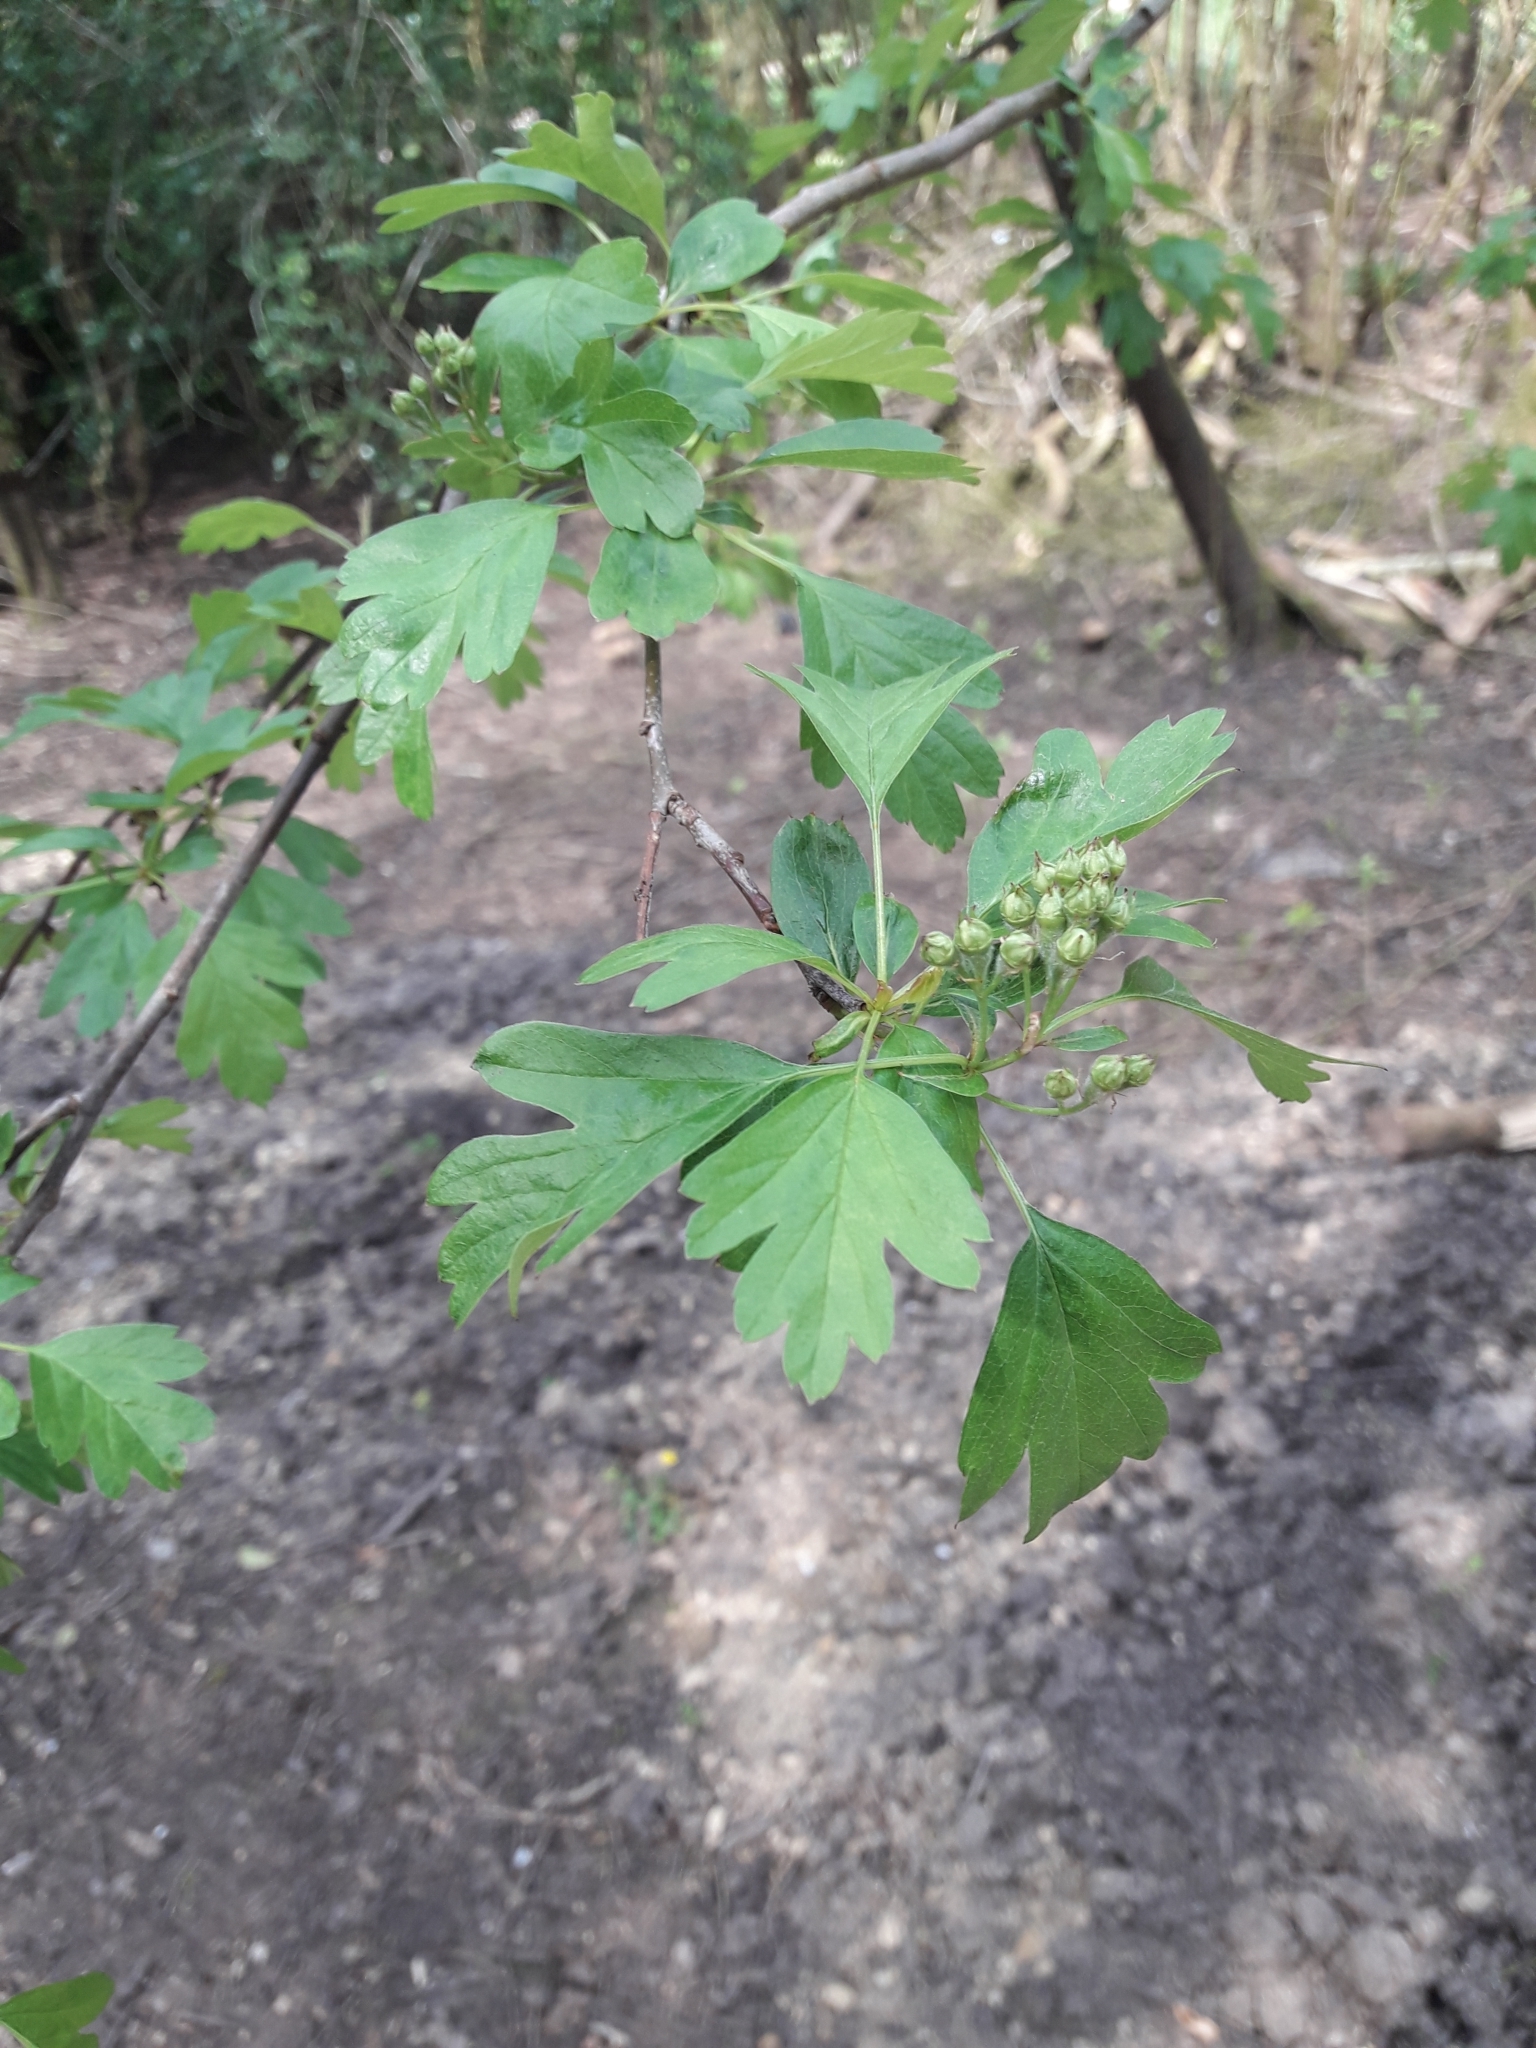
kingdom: Plantae
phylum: Tracheophyta
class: Magnoliopsida
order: Rosales
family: Rosaceae
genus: Crataegus
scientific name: Crataegus monogyna
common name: Hawthorn
